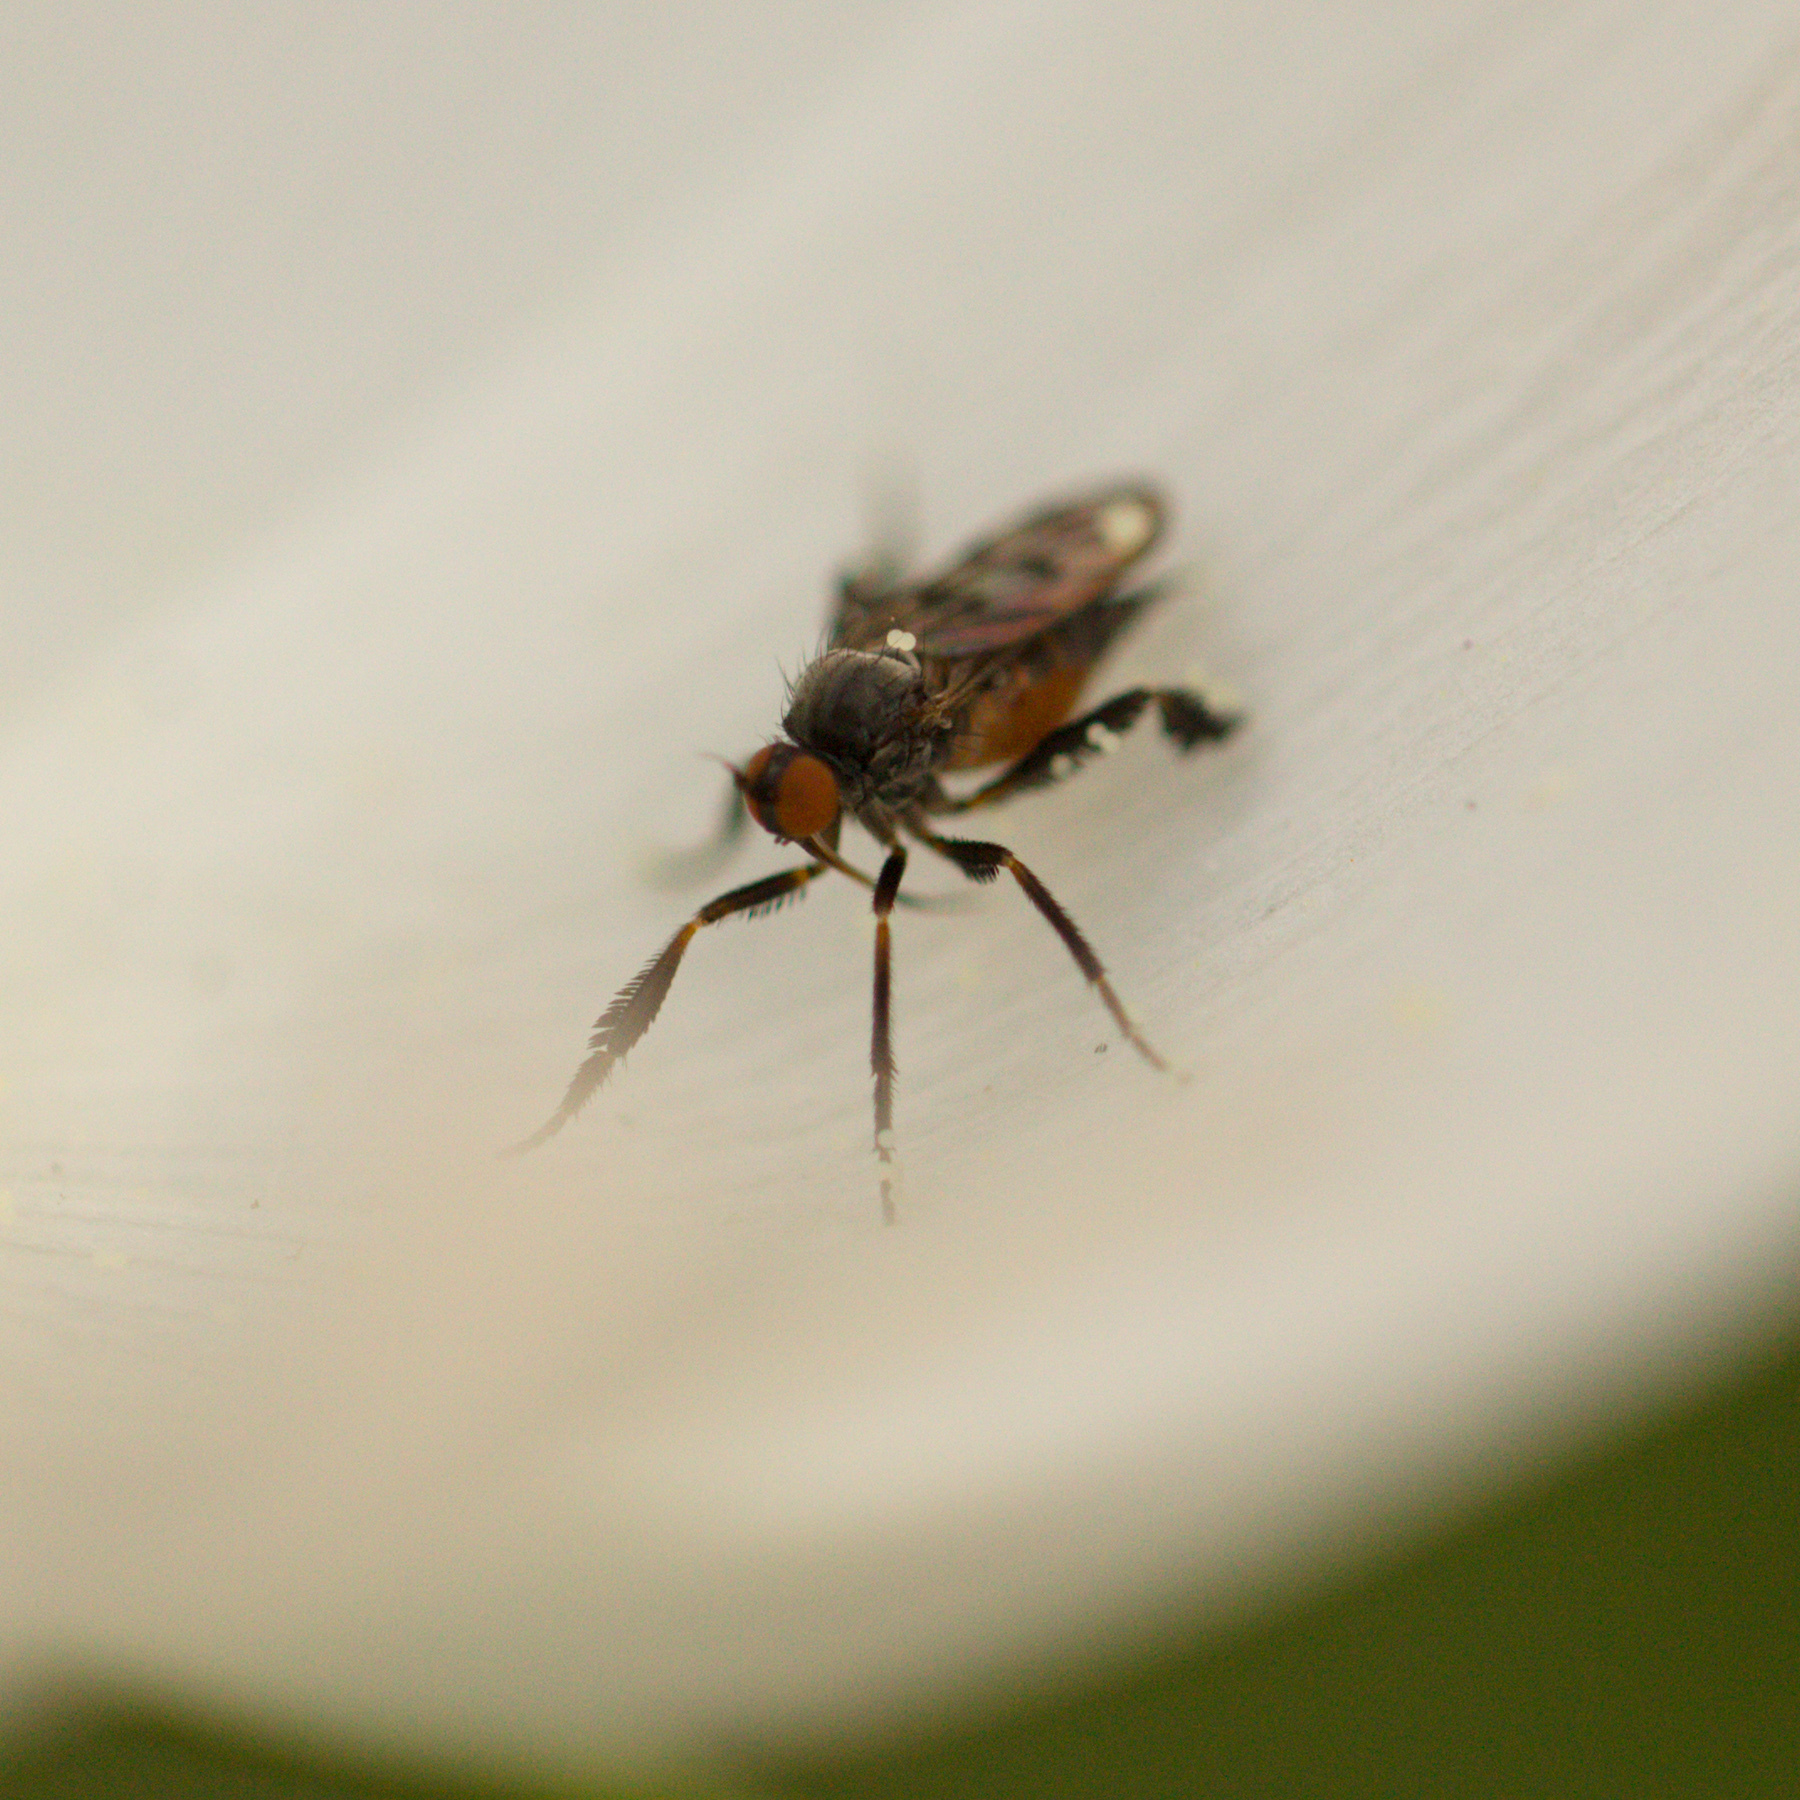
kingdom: Animalia
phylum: Arthropoda
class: Insecta
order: Diptera
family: Empididae
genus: Empis
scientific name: Empis clausa
